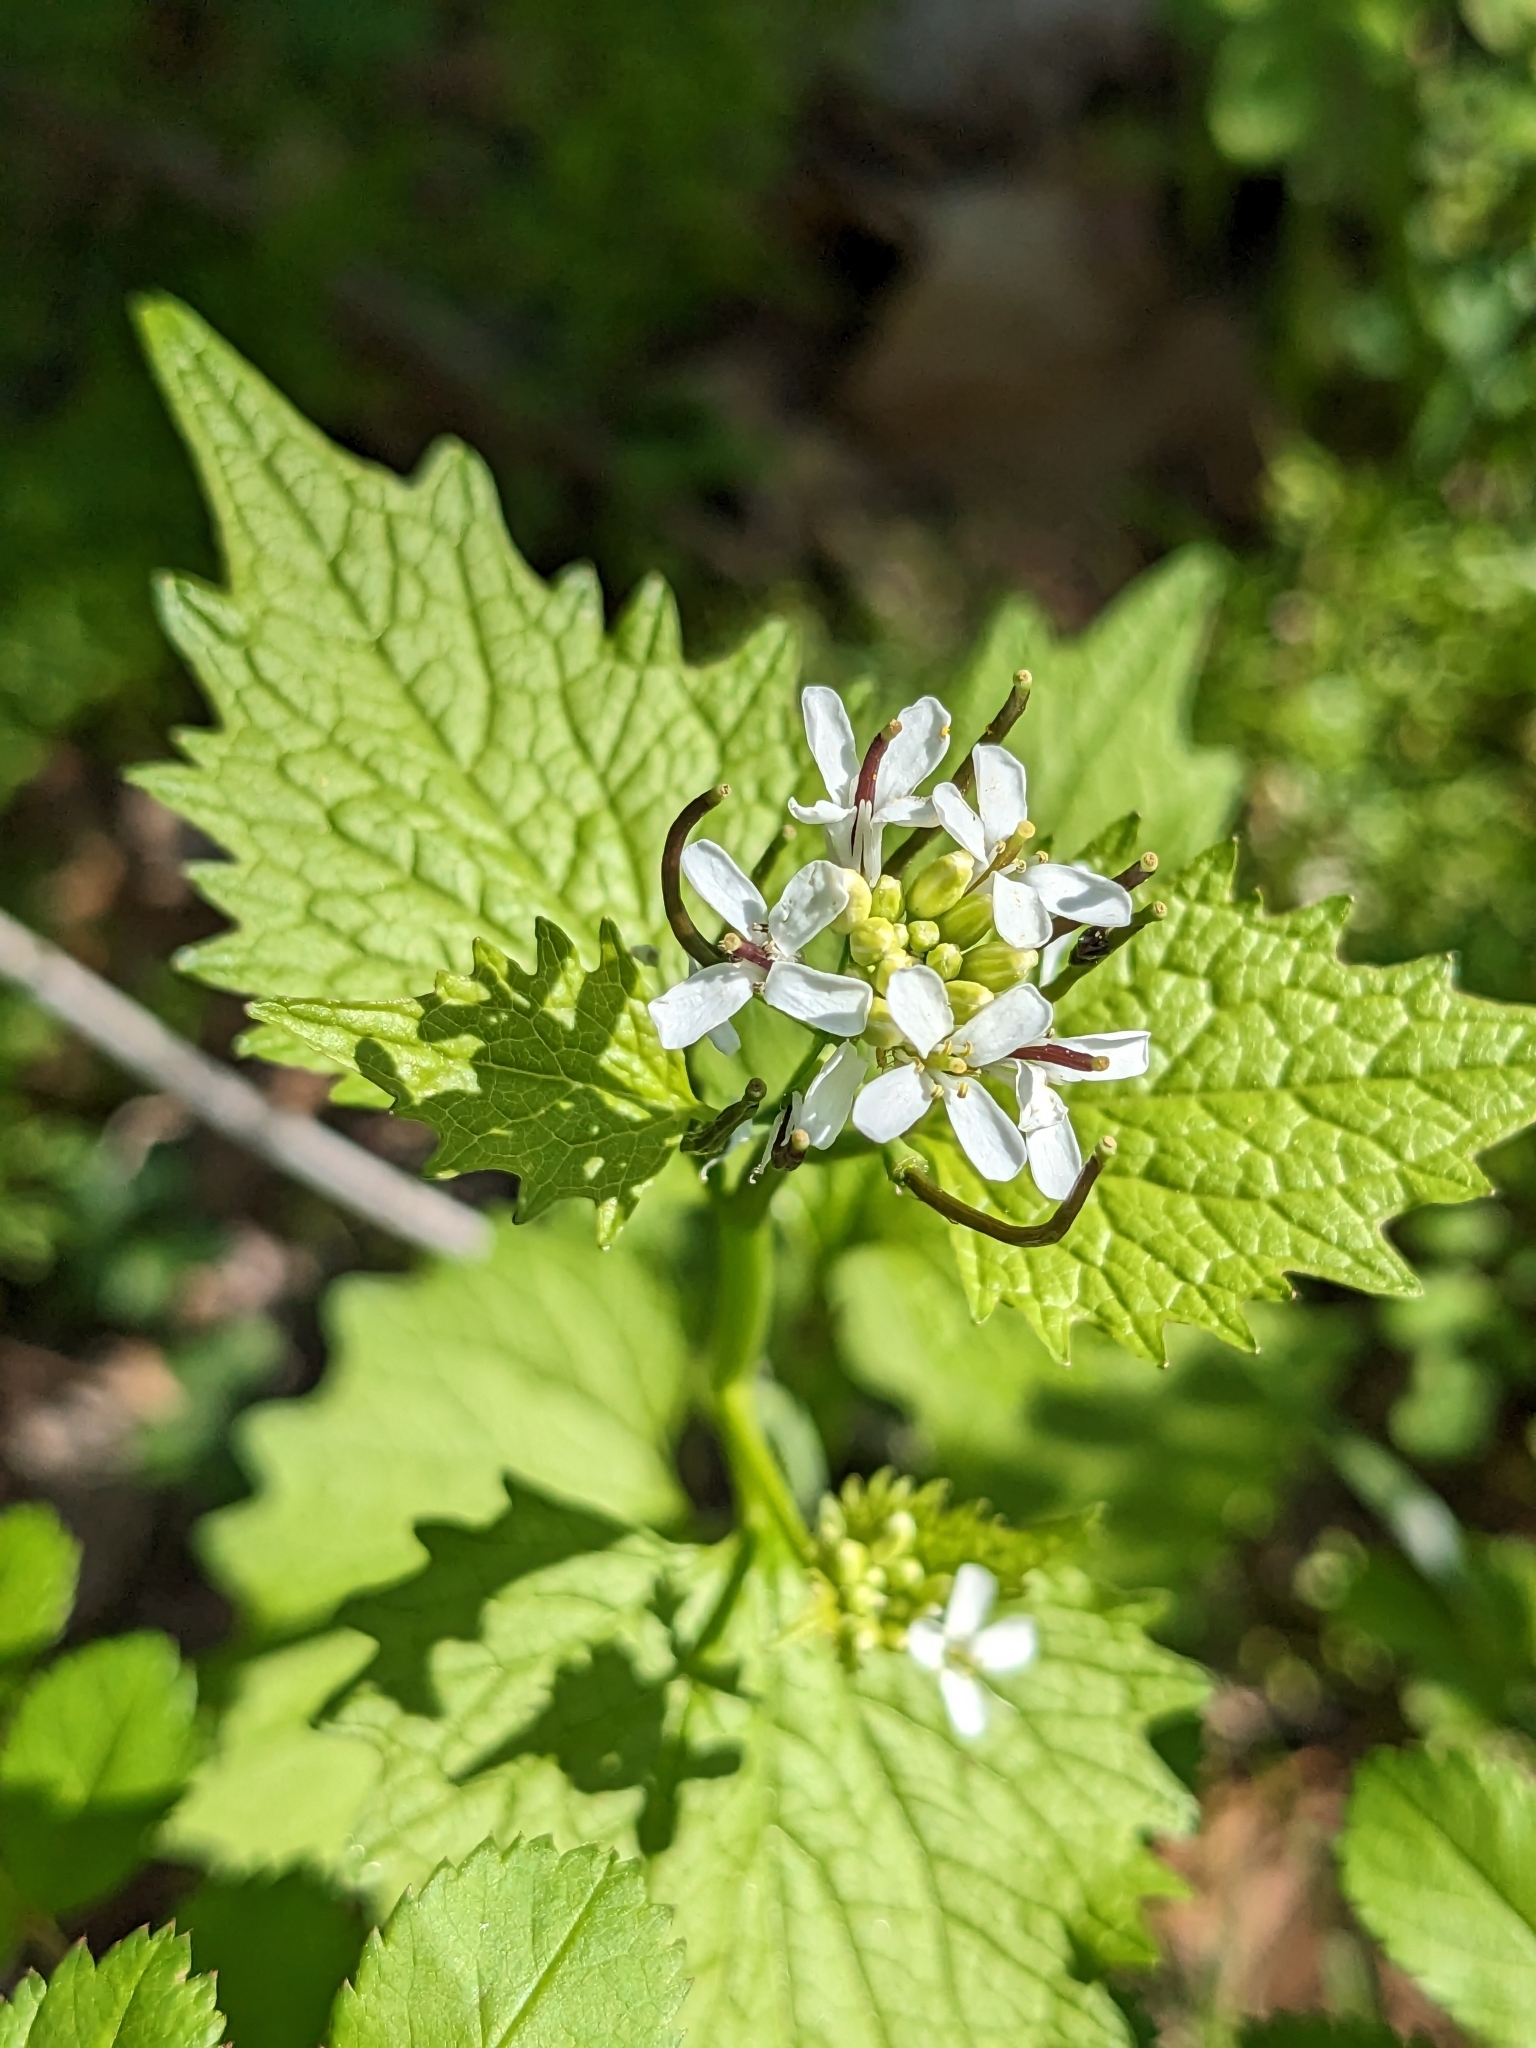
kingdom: Plantae
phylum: Tracheophyta
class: Magnoliopsida
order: Brassicales
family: Brassicaceae
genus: Alliaria
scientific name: Alliaria petiolata
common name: Garlic mustard
